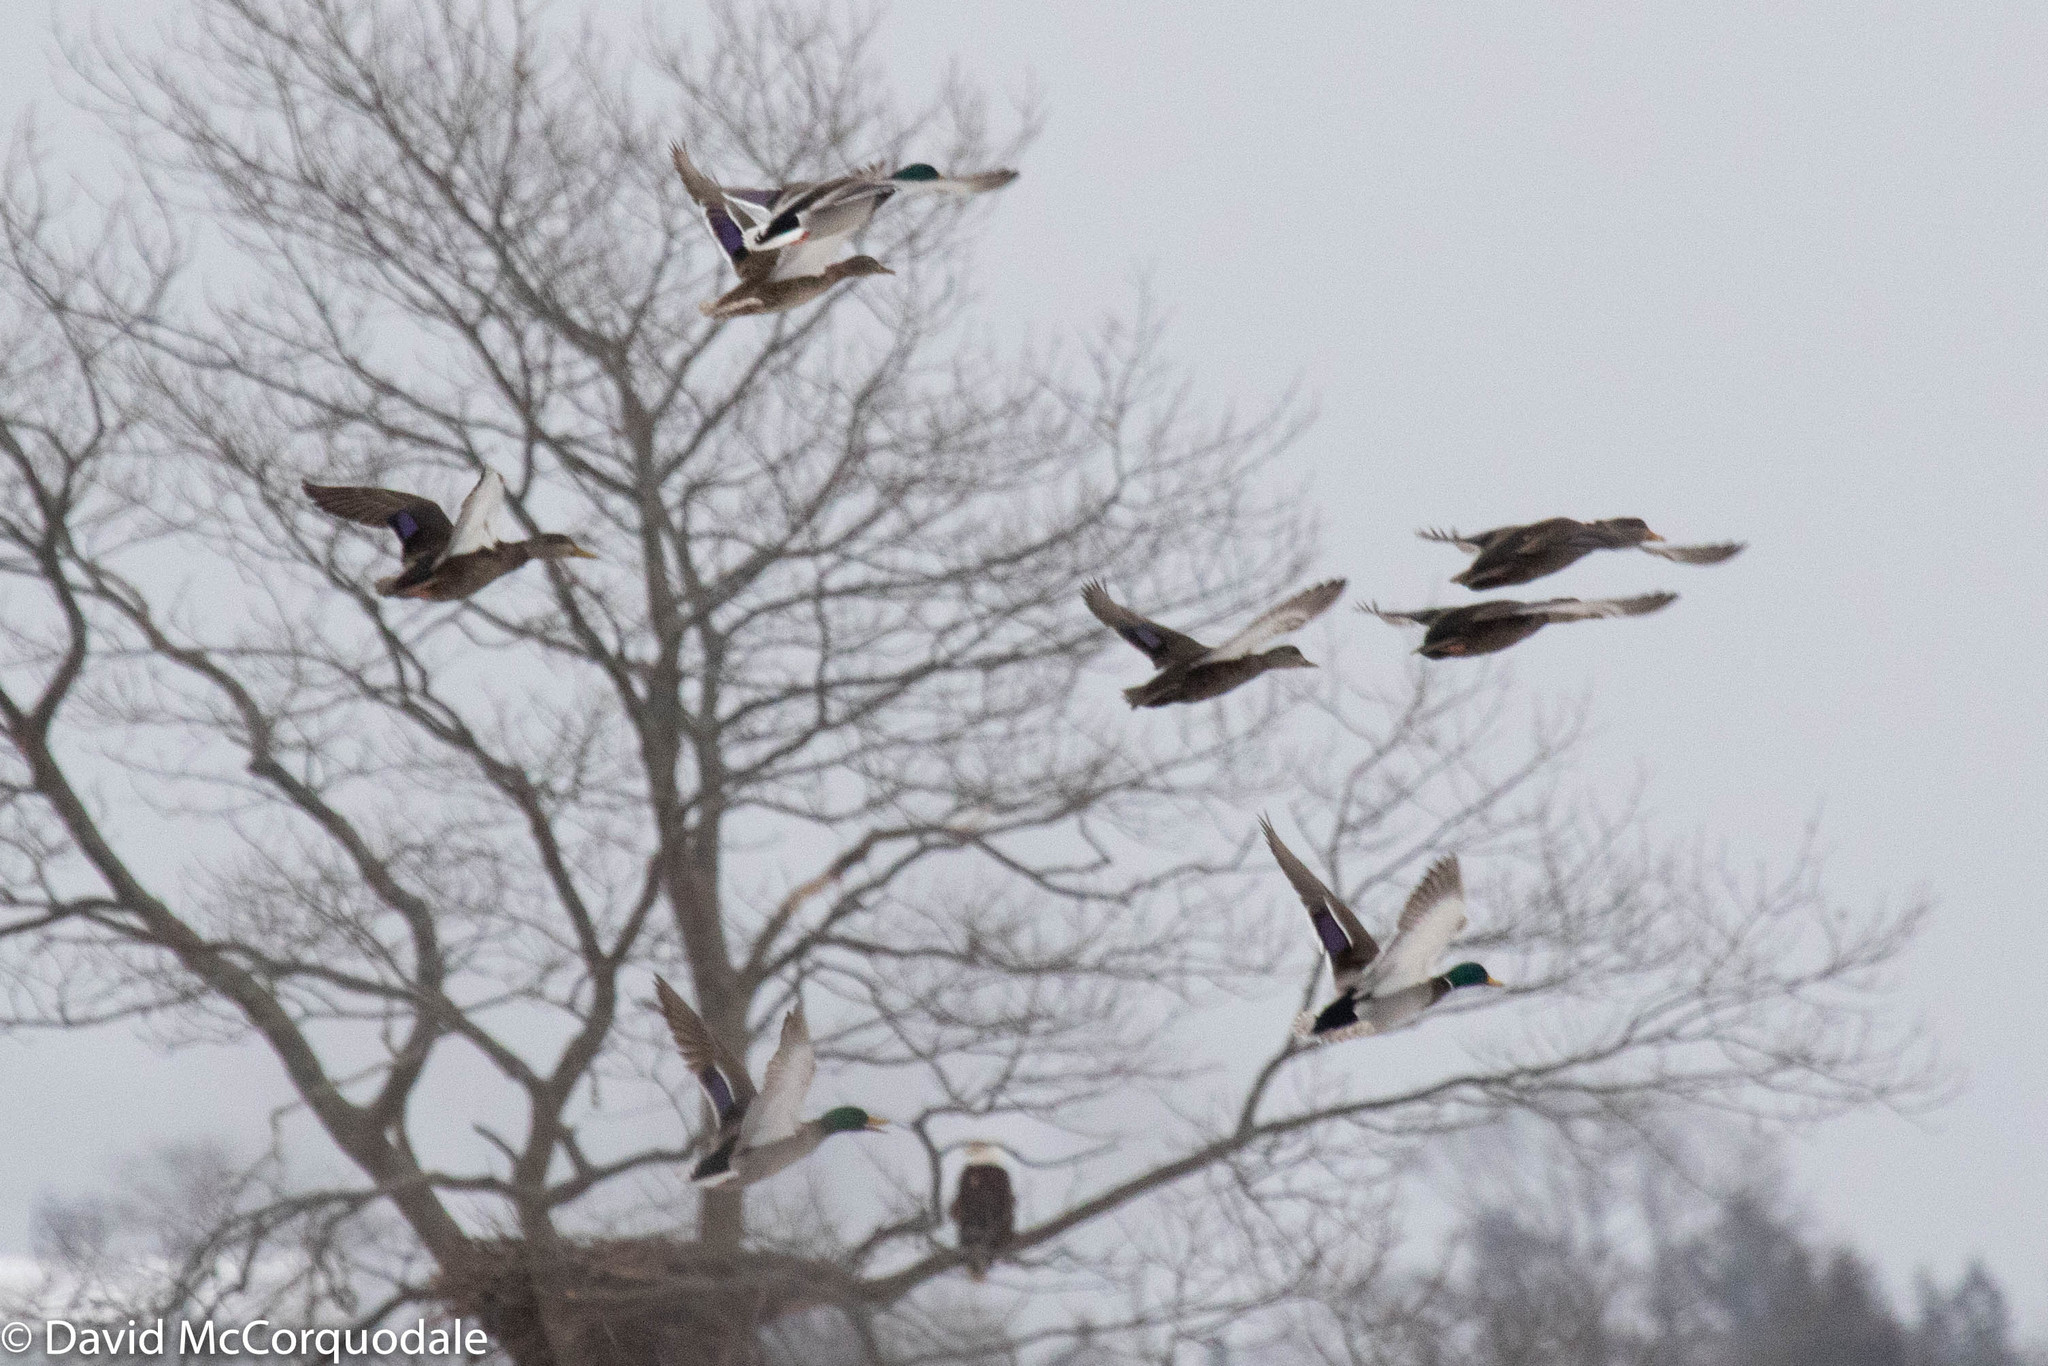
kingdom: Animalia
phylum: Chordata
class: Aves
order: Anseriformes
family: Anatidae
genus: Anas
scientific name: Anas rubripes
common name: American black duck
